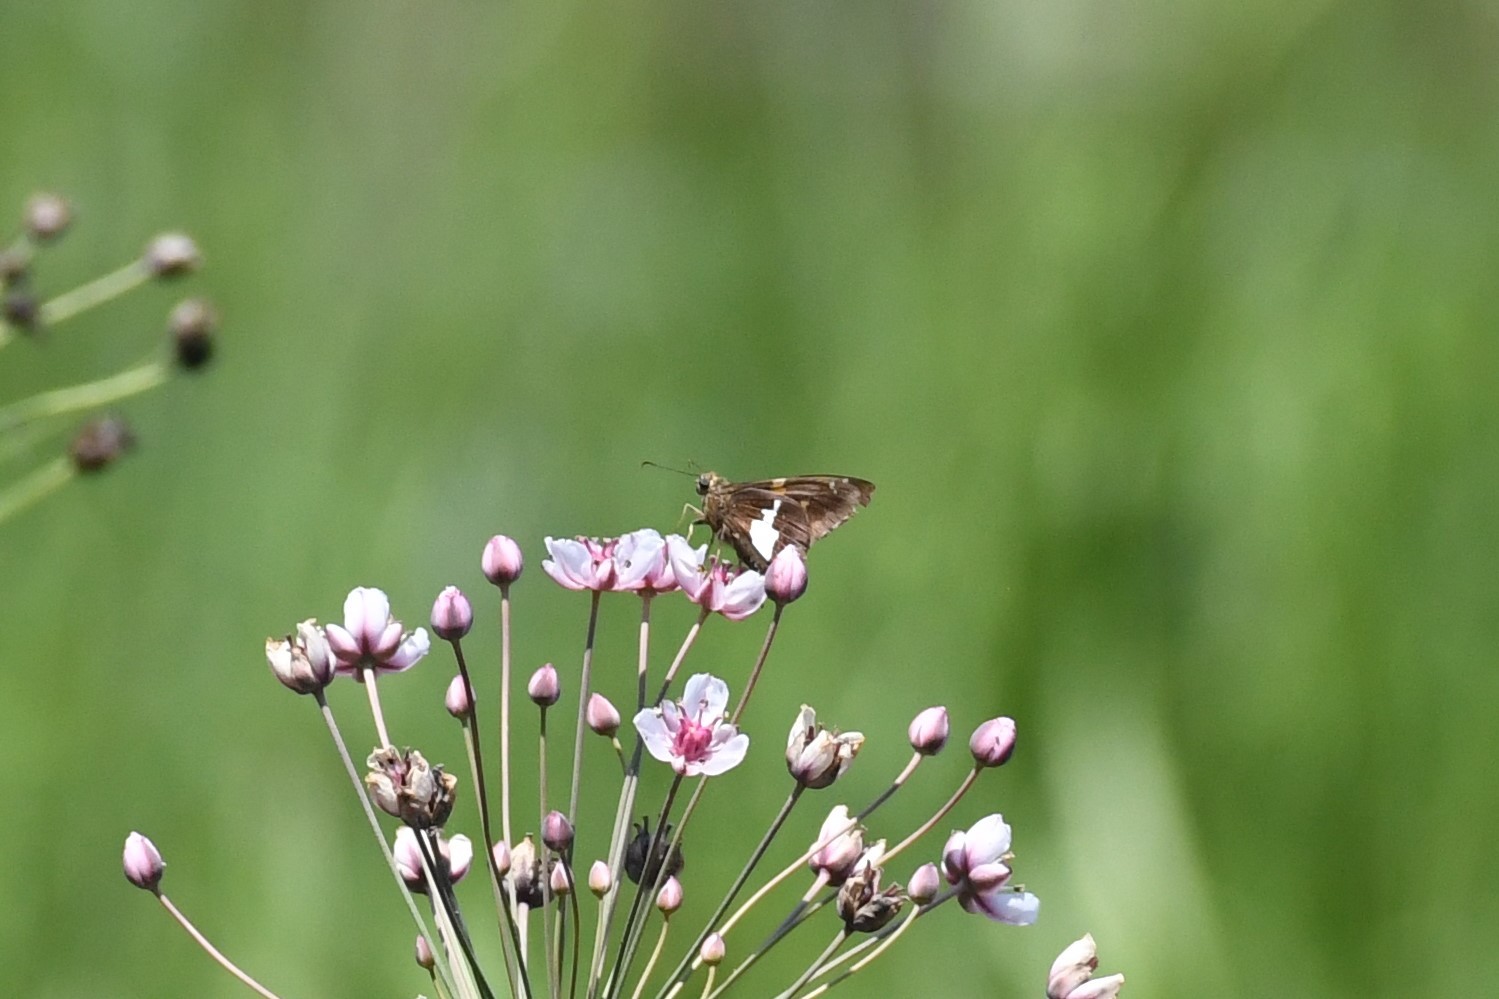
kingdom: Animalia
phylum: Arthropoda
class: Insecta
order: Lepidoptera
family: Hesperiidae
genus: Epargyreus
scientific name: Epargyreus clarus
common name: Silver-spotted skipper
